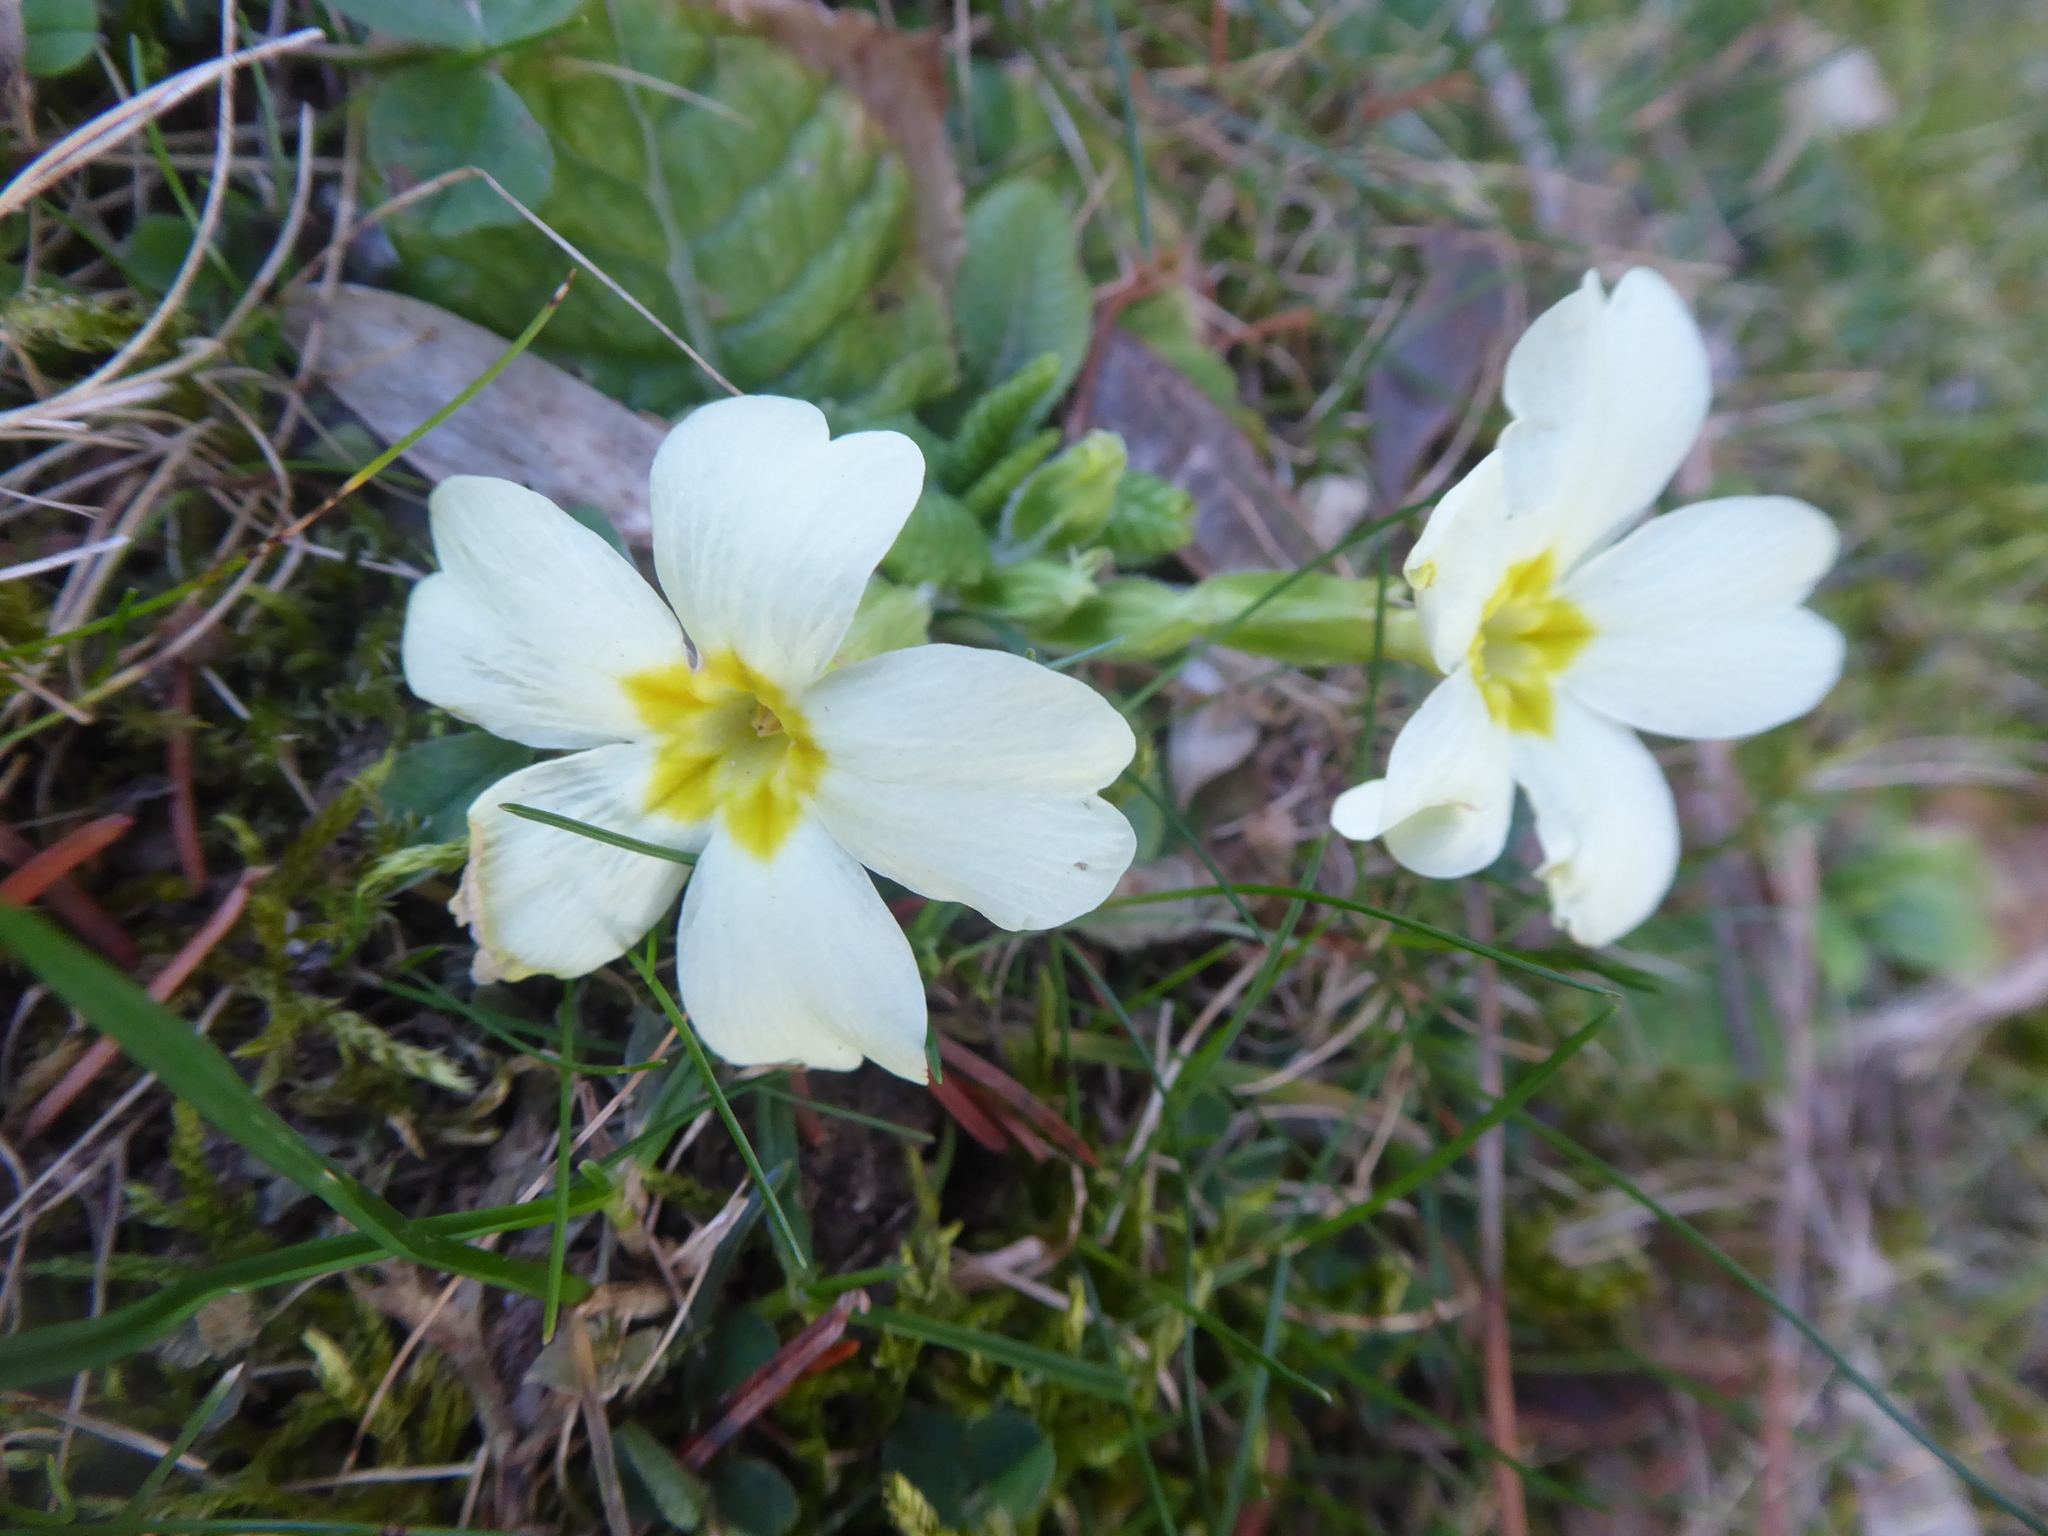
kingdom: Plantae
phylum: Tracheophyta
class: Magnoliopsida
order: Ericales
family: Primulaceae
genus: Primula
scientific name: Primula vulgaris
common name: Primrose
